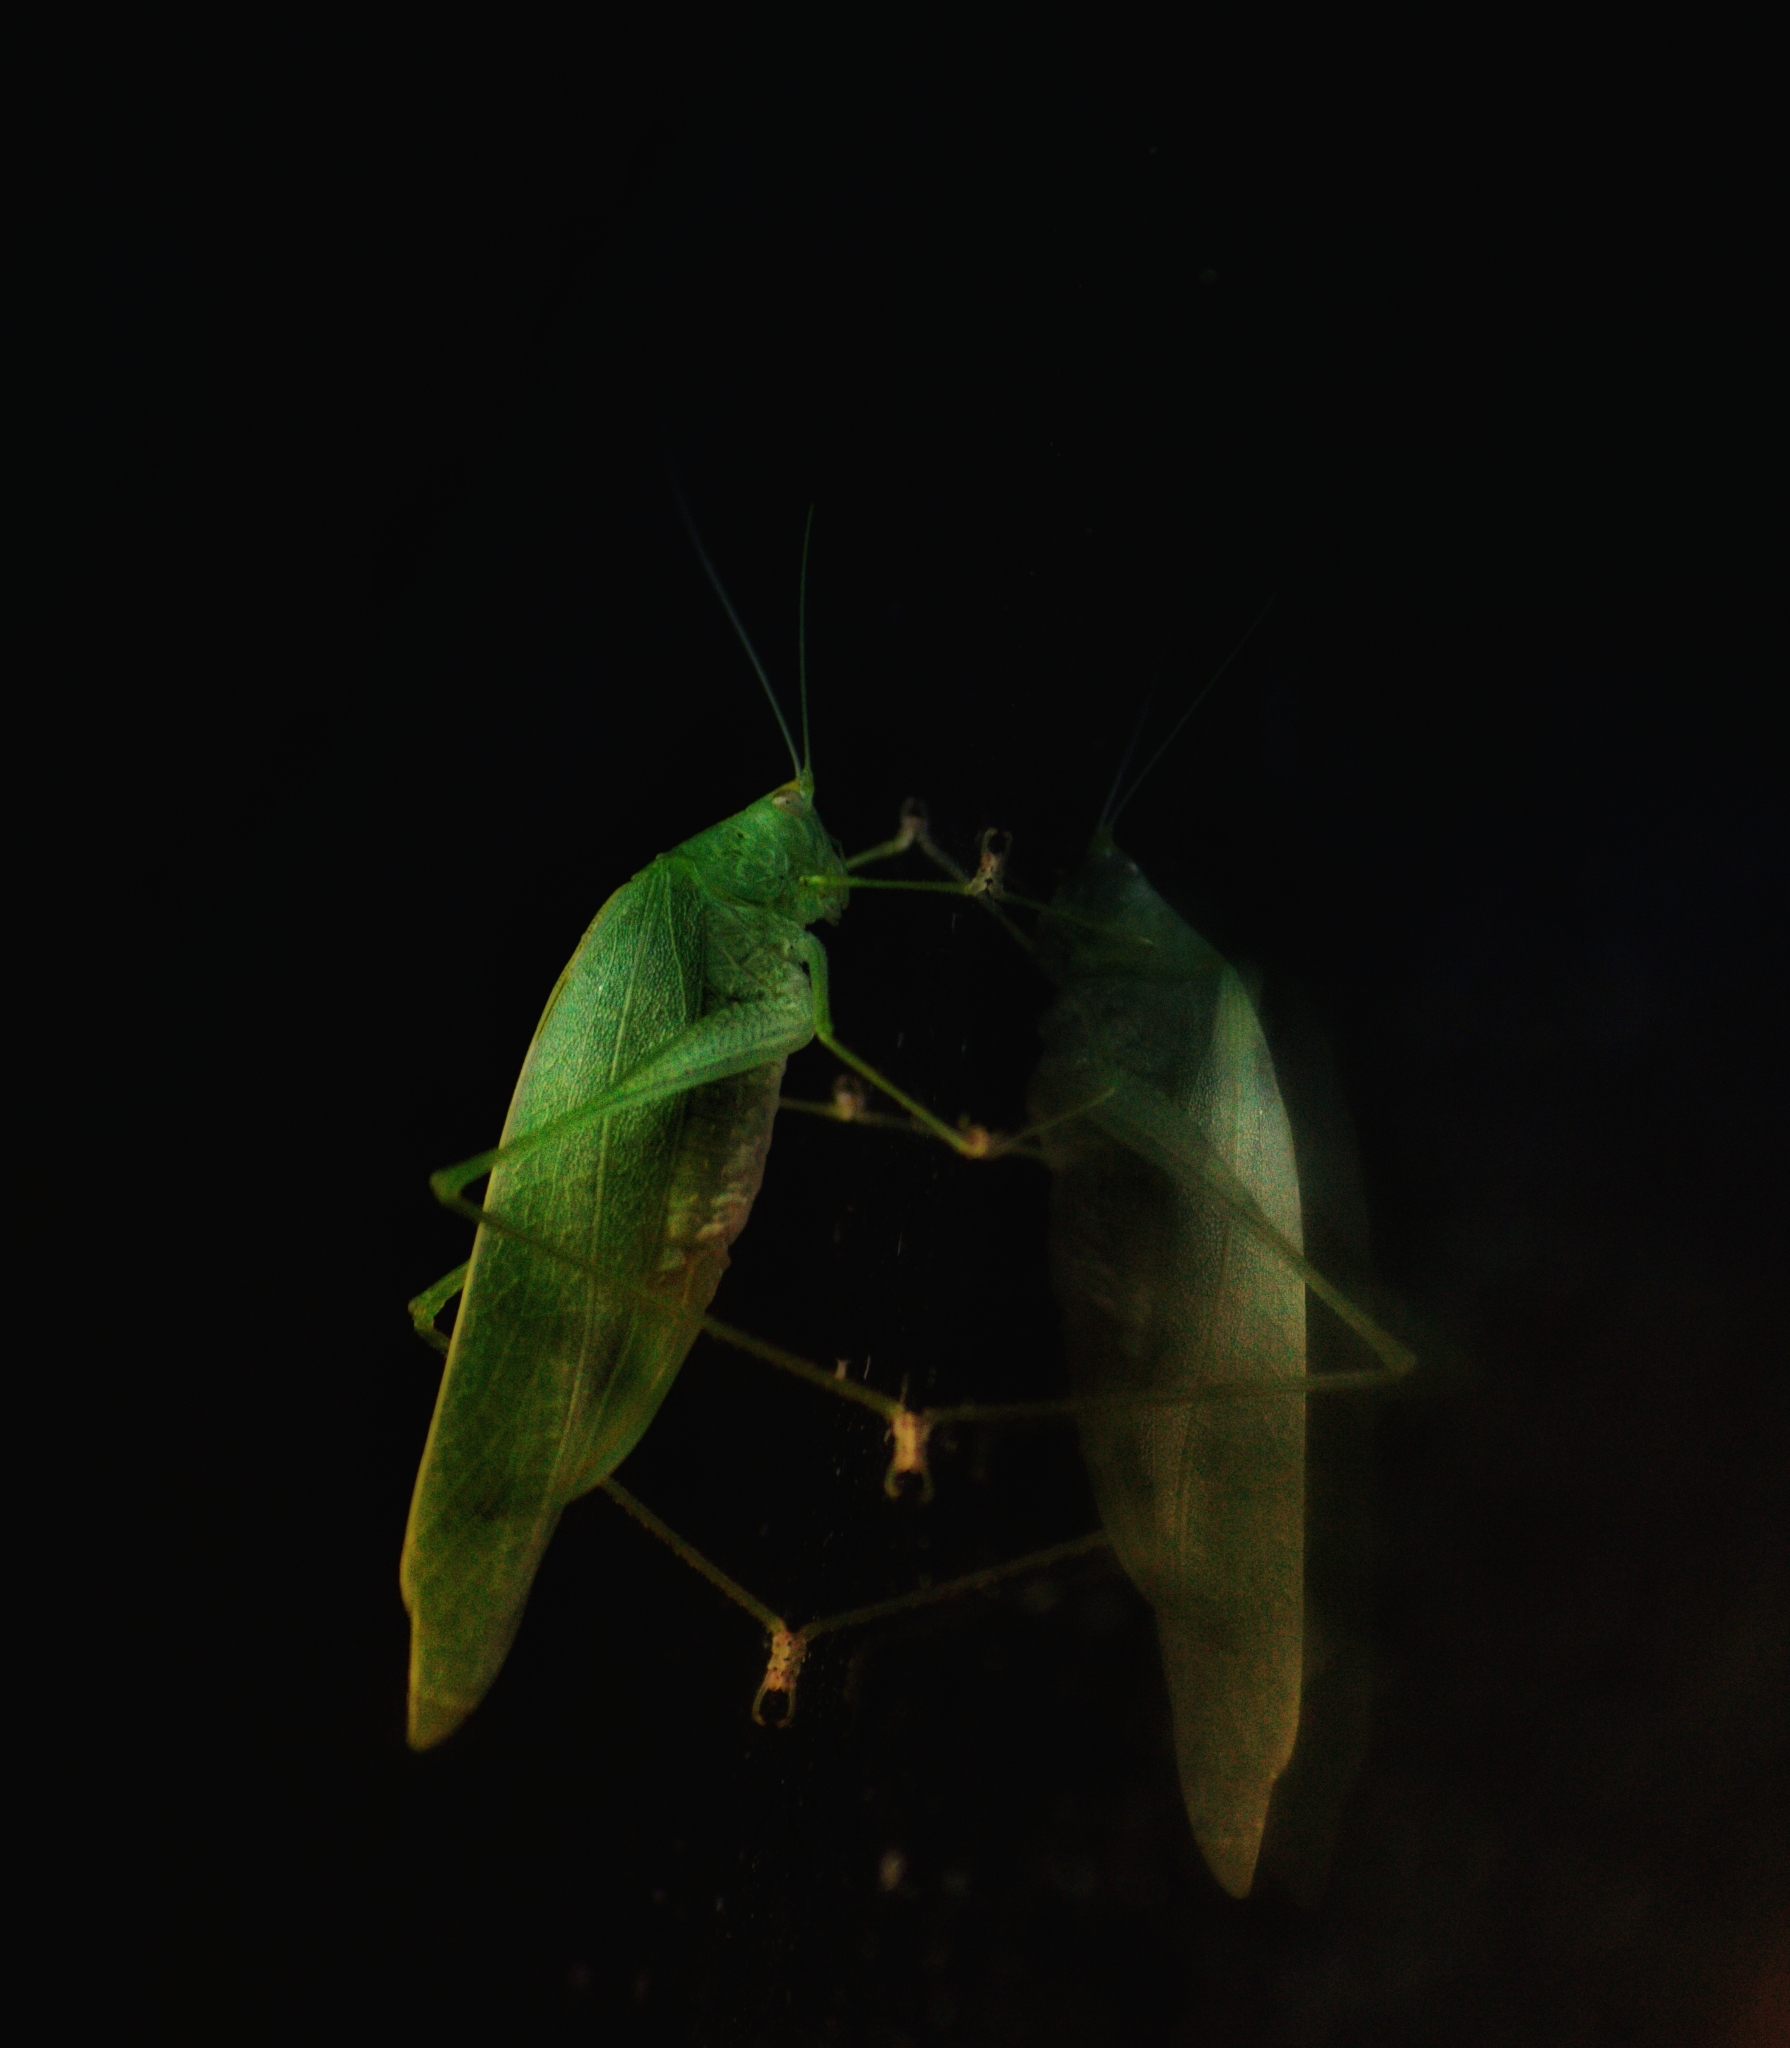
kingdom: Animalia
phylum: Arthropoda
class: Insecta
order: Orthoptera
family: Tettigoniidae
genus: Grammadera
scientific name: Grammadera clara
